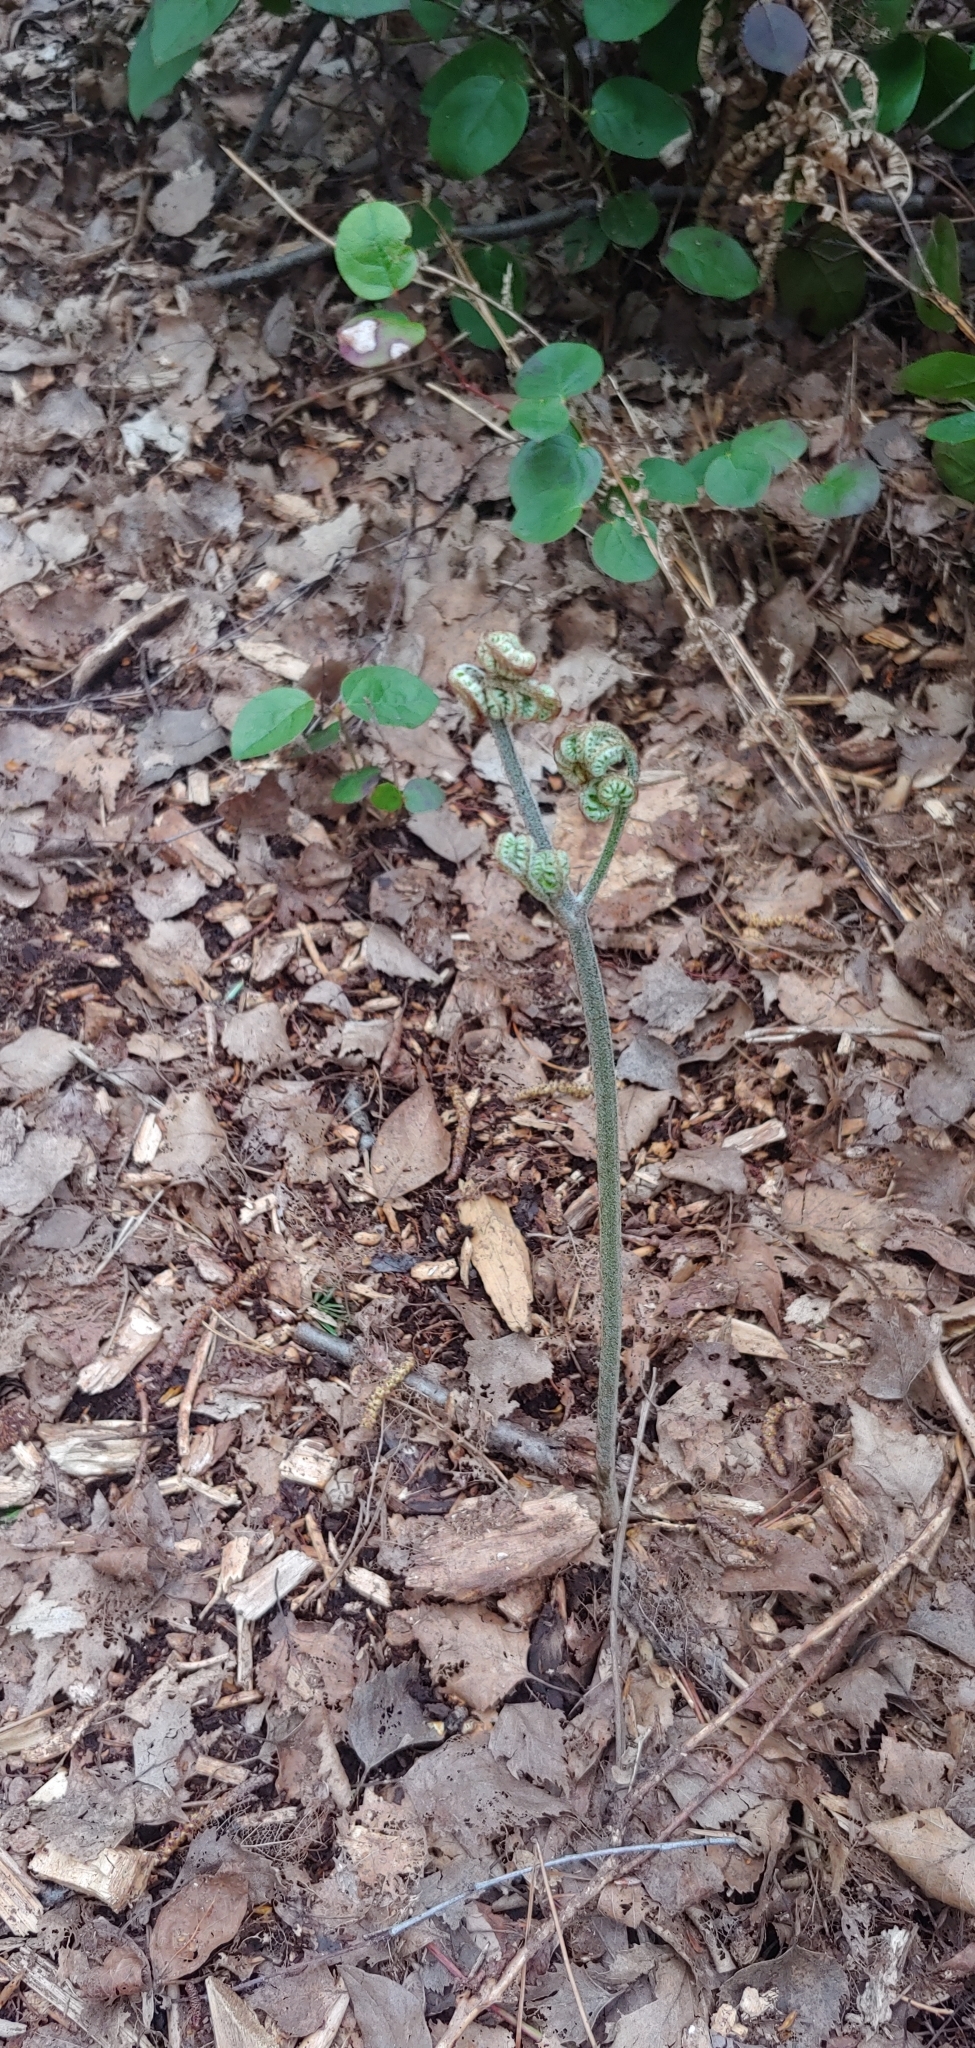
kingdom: Plantae
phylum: Tracheophyta
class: Polypodiopsida
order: Polypodiales
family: Dennstaedtiaceae
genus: Pteridium
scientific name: Pteridium aquilinum
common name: Bracken
